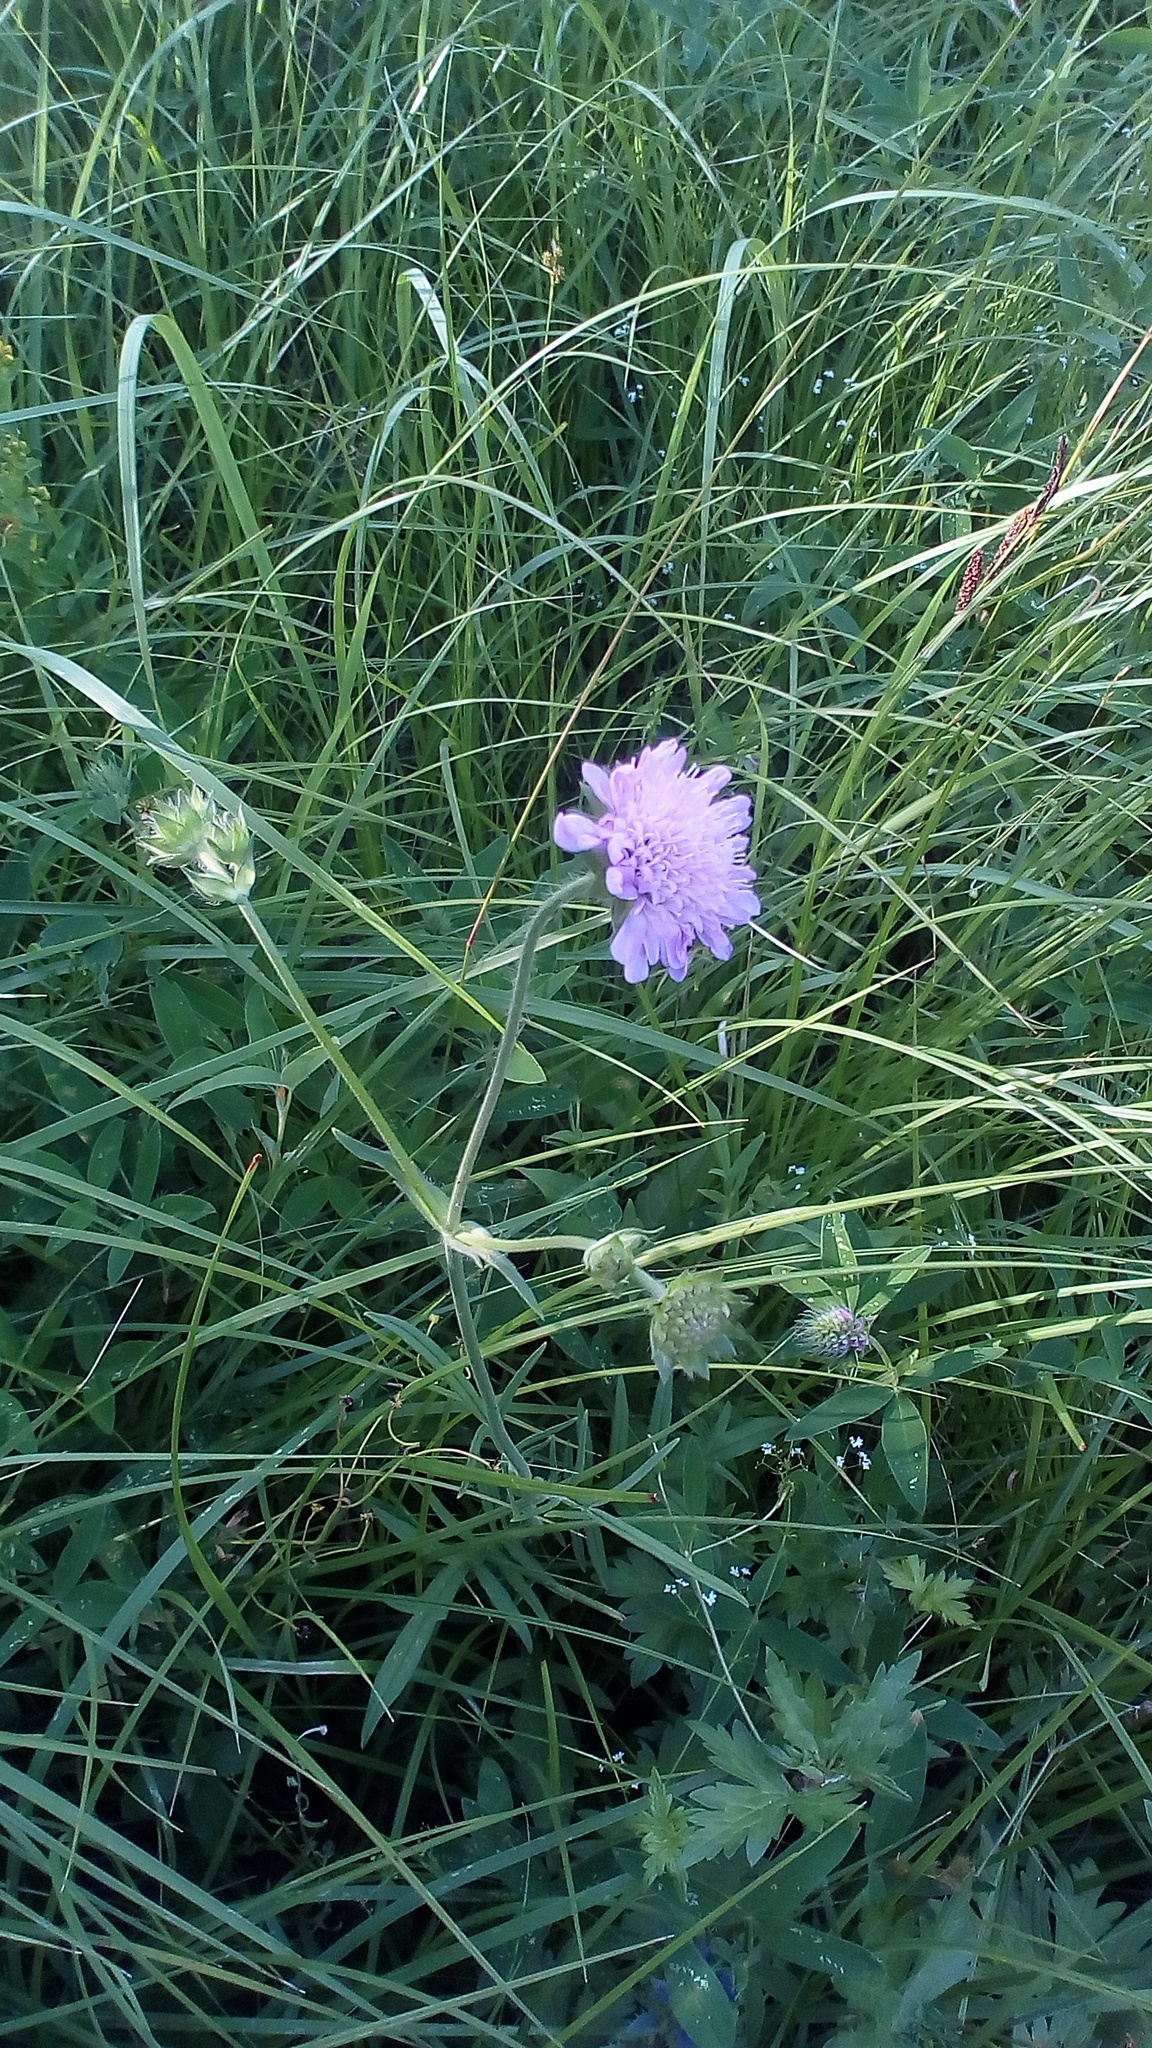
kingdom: Plantae
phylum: Tracheophyta
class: Magnoliopsida
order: Dipsacales
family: Caprifoliaceae
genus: Knautia
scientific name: Knautia arvensis
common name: Field scabiosa
